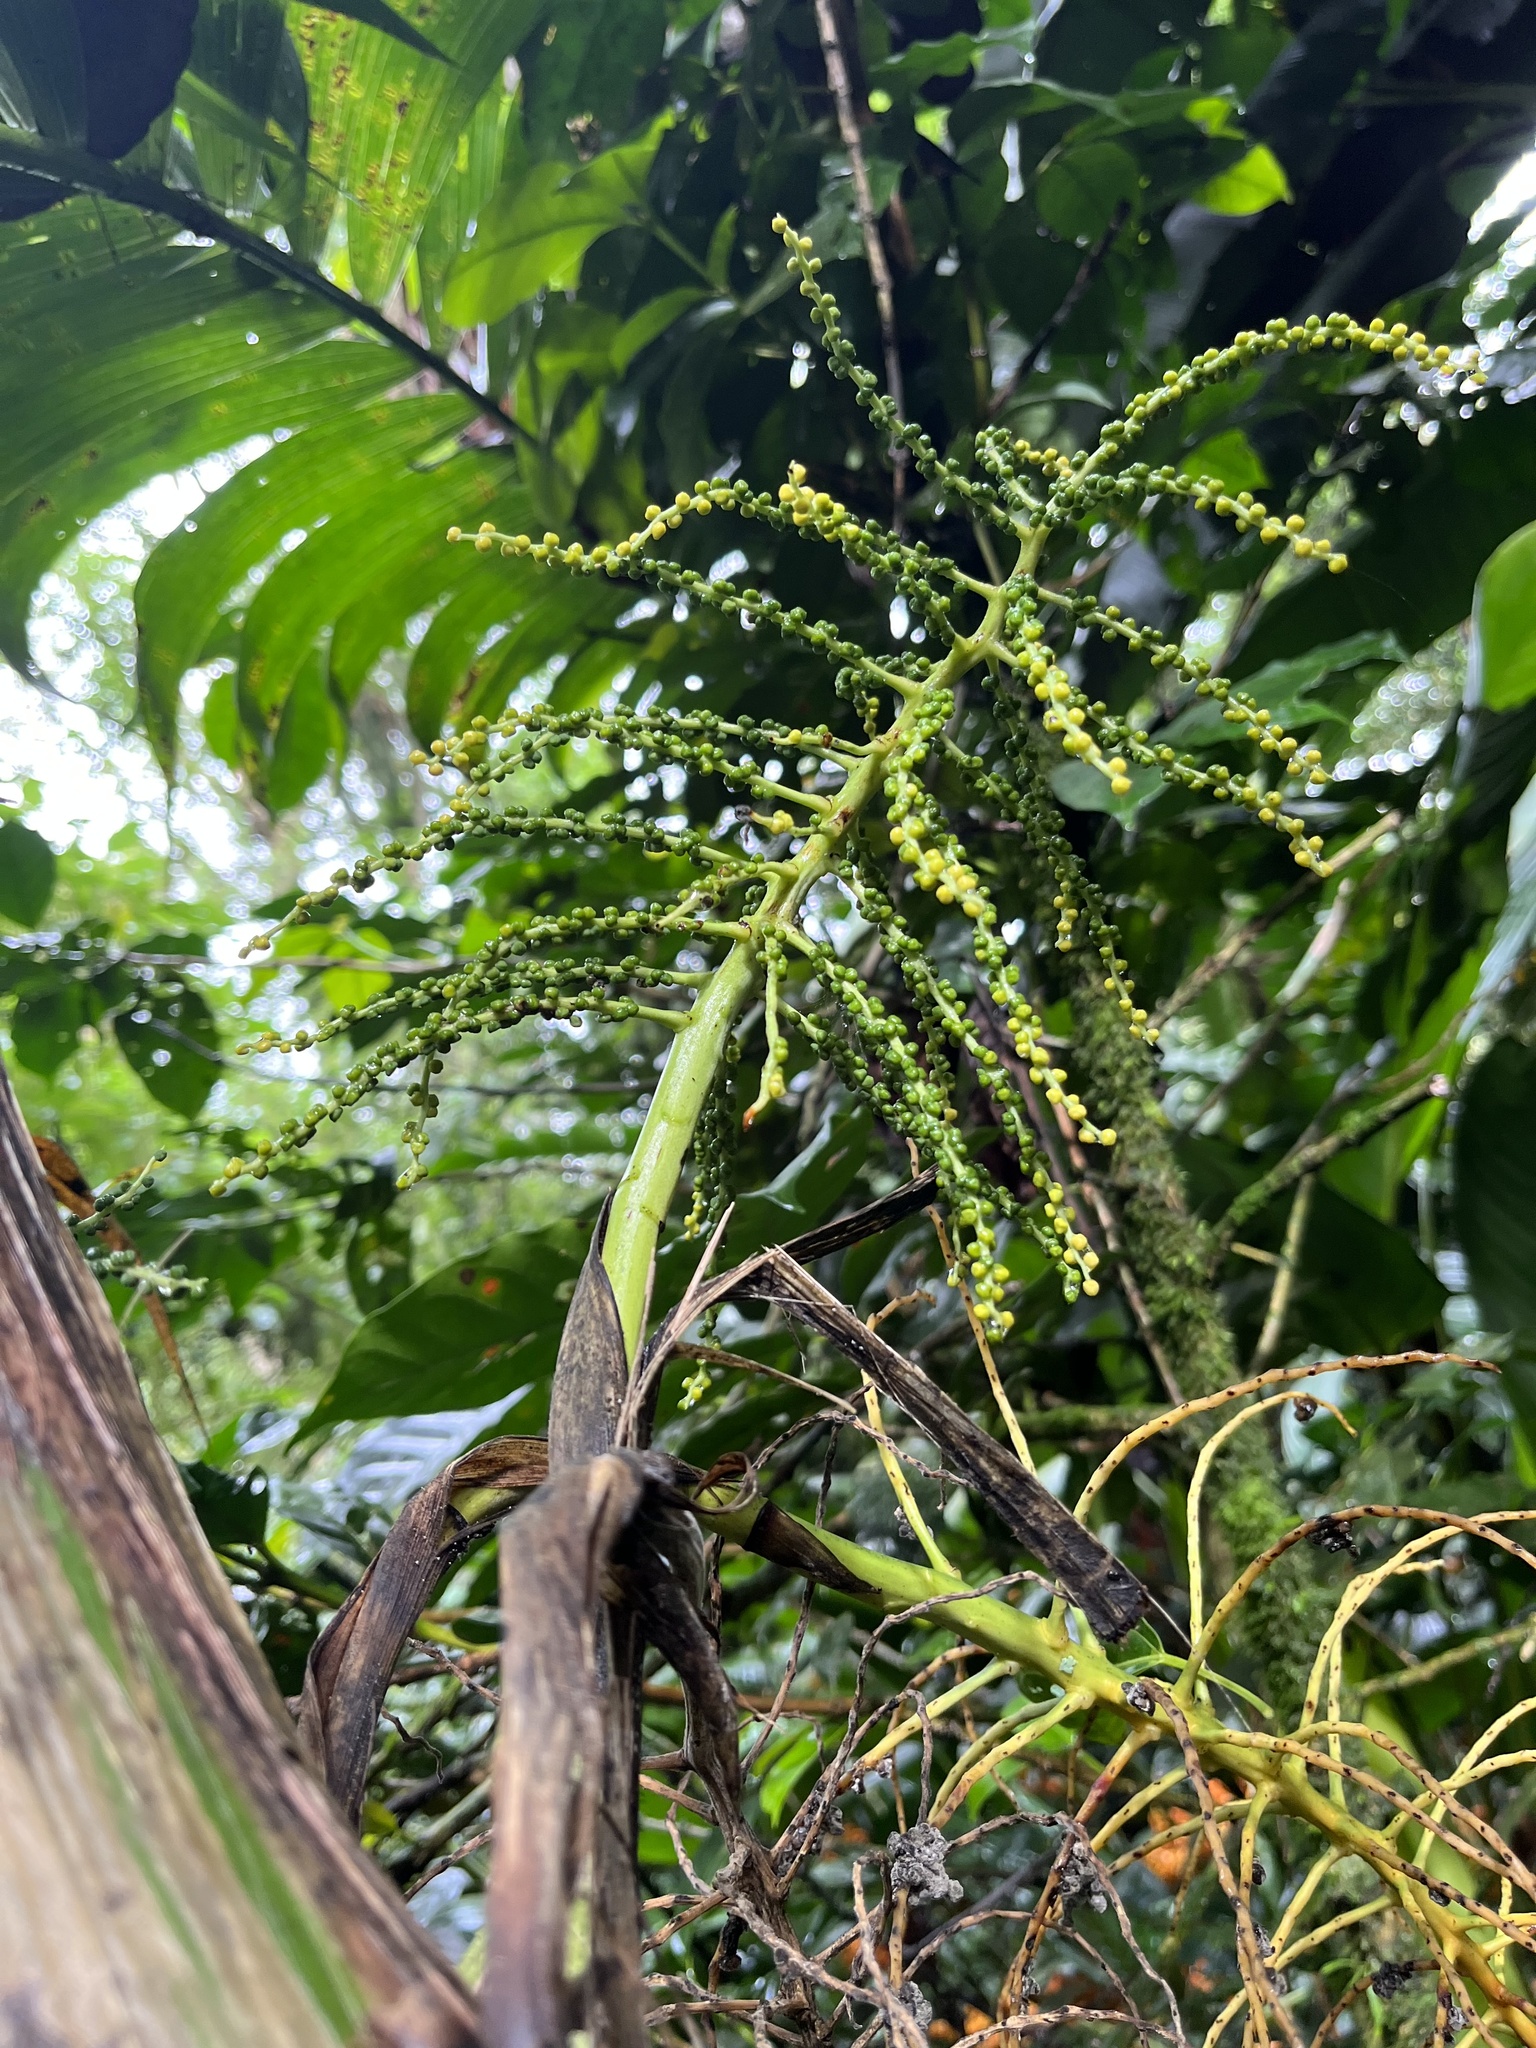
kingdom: Plantae
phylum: Tracheophyta
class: Liliopsida
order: Arecales
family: Arecaceae
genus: Chamaedorea
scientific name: Chamaedorea linearis
